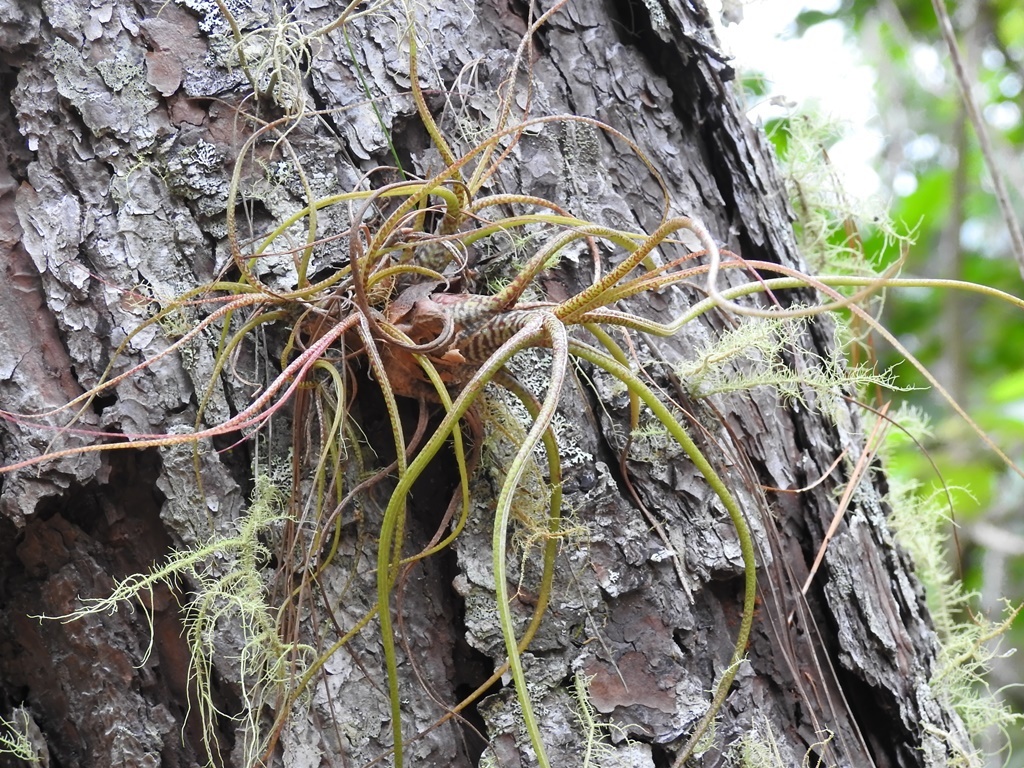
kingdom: Plantae
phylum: Tracheophyta
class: Liliopsida
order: Poales
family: Bromeliaceae
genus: Tillandsia
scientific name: Tillandsia butzii
